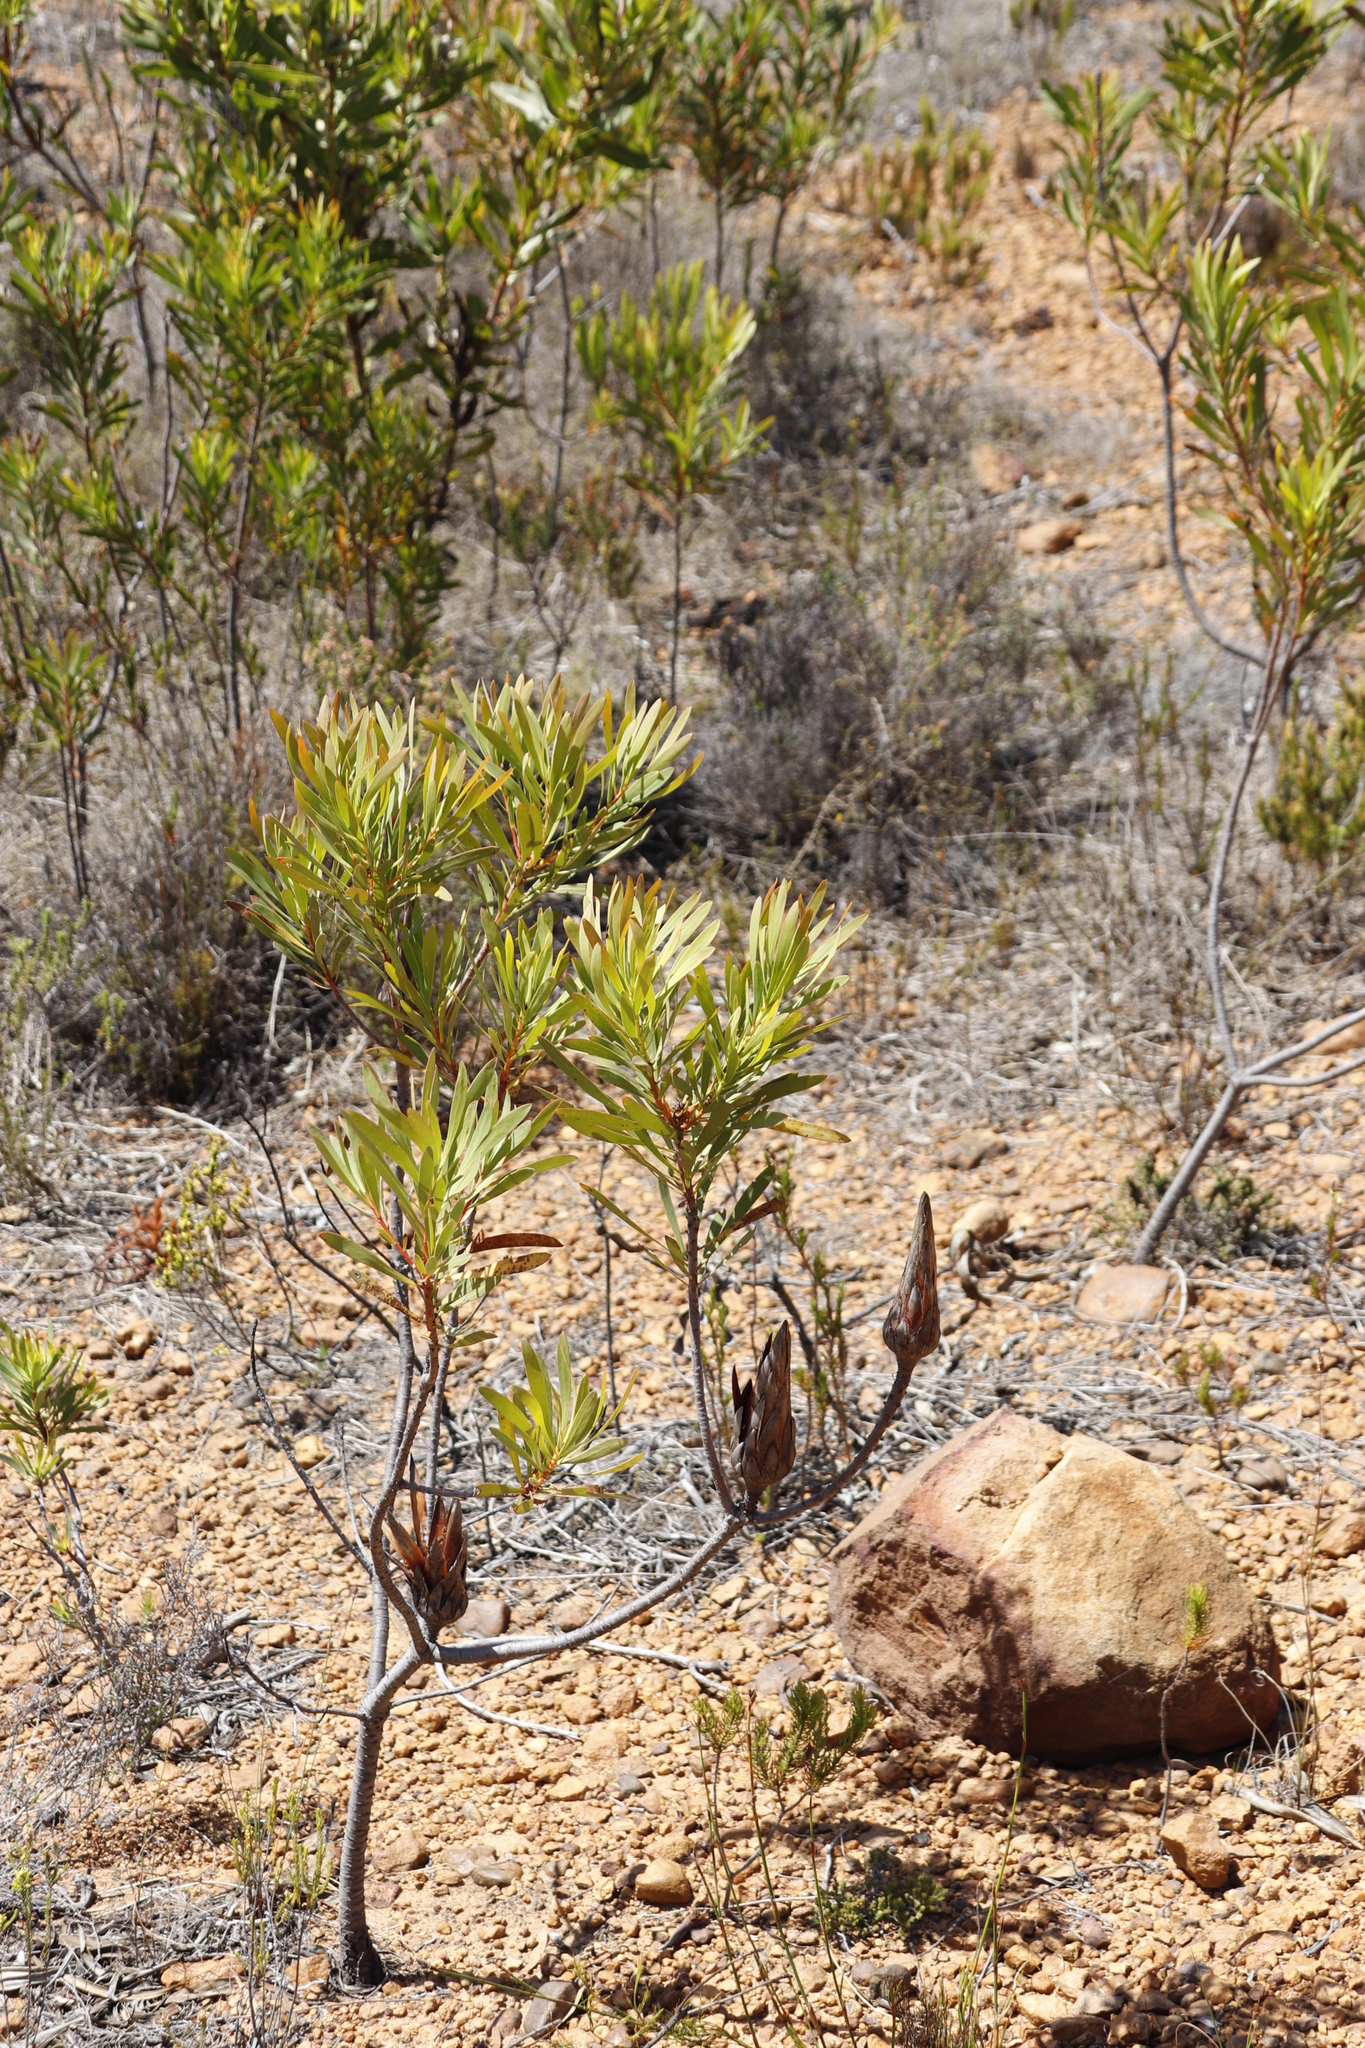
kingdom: Plantae
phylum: Tracheophyta
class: Magnoliopsida
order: Proteales
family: Proteaceae
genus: Protea
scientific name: Protea repens
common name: Sugarbush
